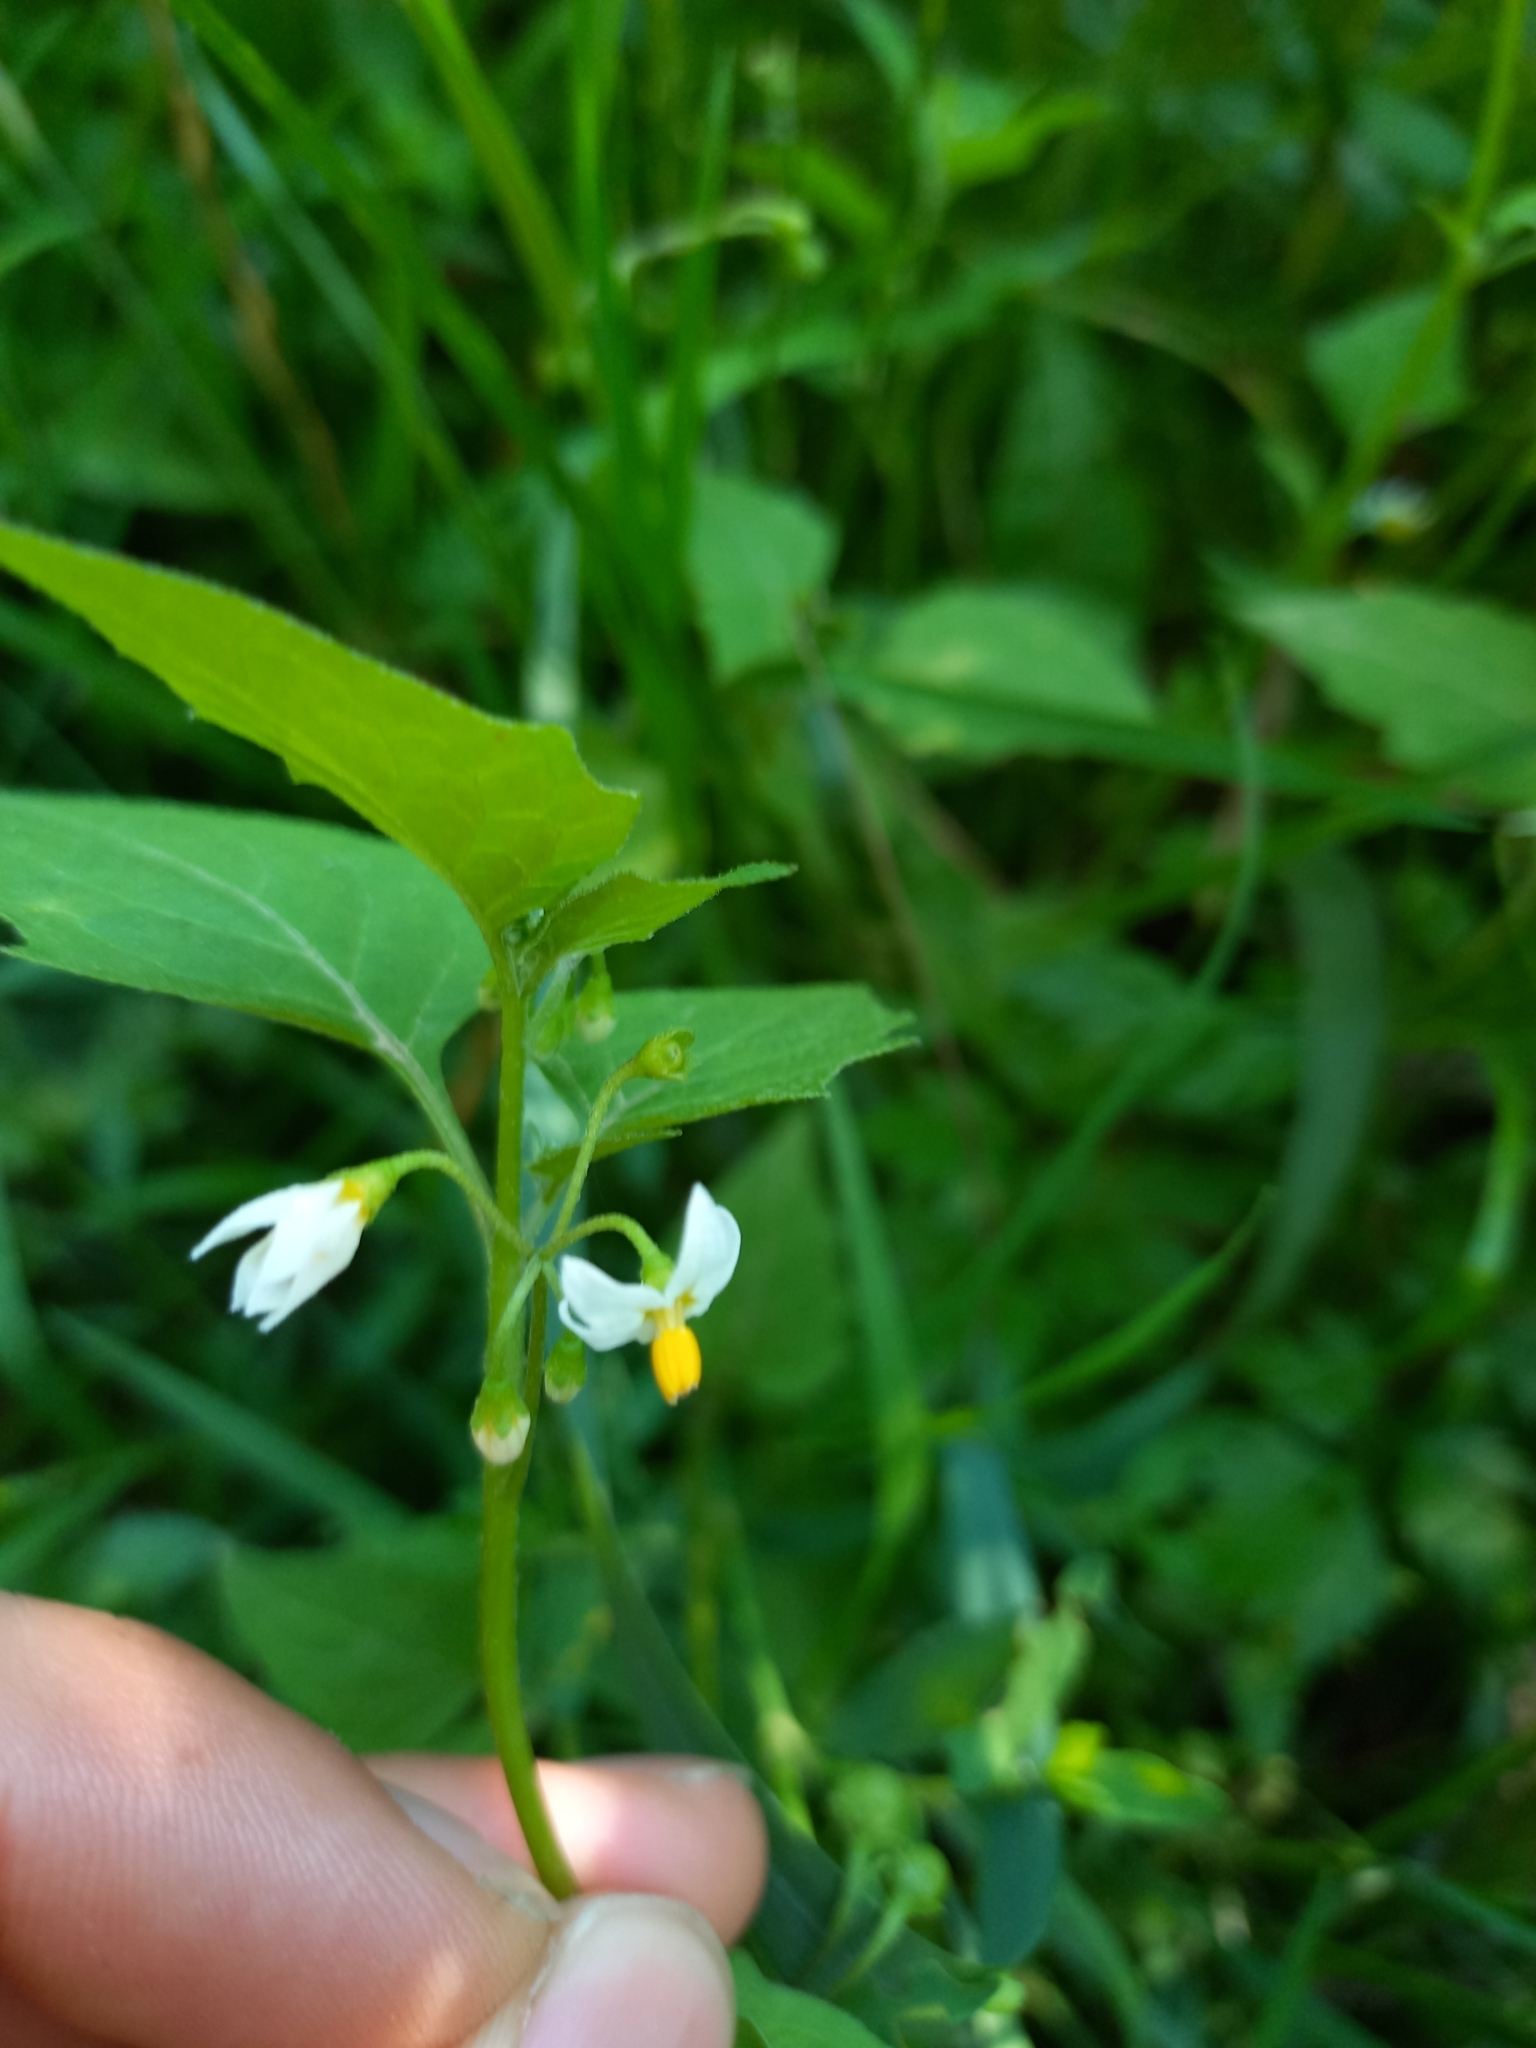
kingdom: Plantae
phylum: Tracheophyta
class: Magnoliopsida
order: Solanales
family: Solanaceae
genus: Solanum
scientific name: Solanum nigrum
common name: Black nightshade
